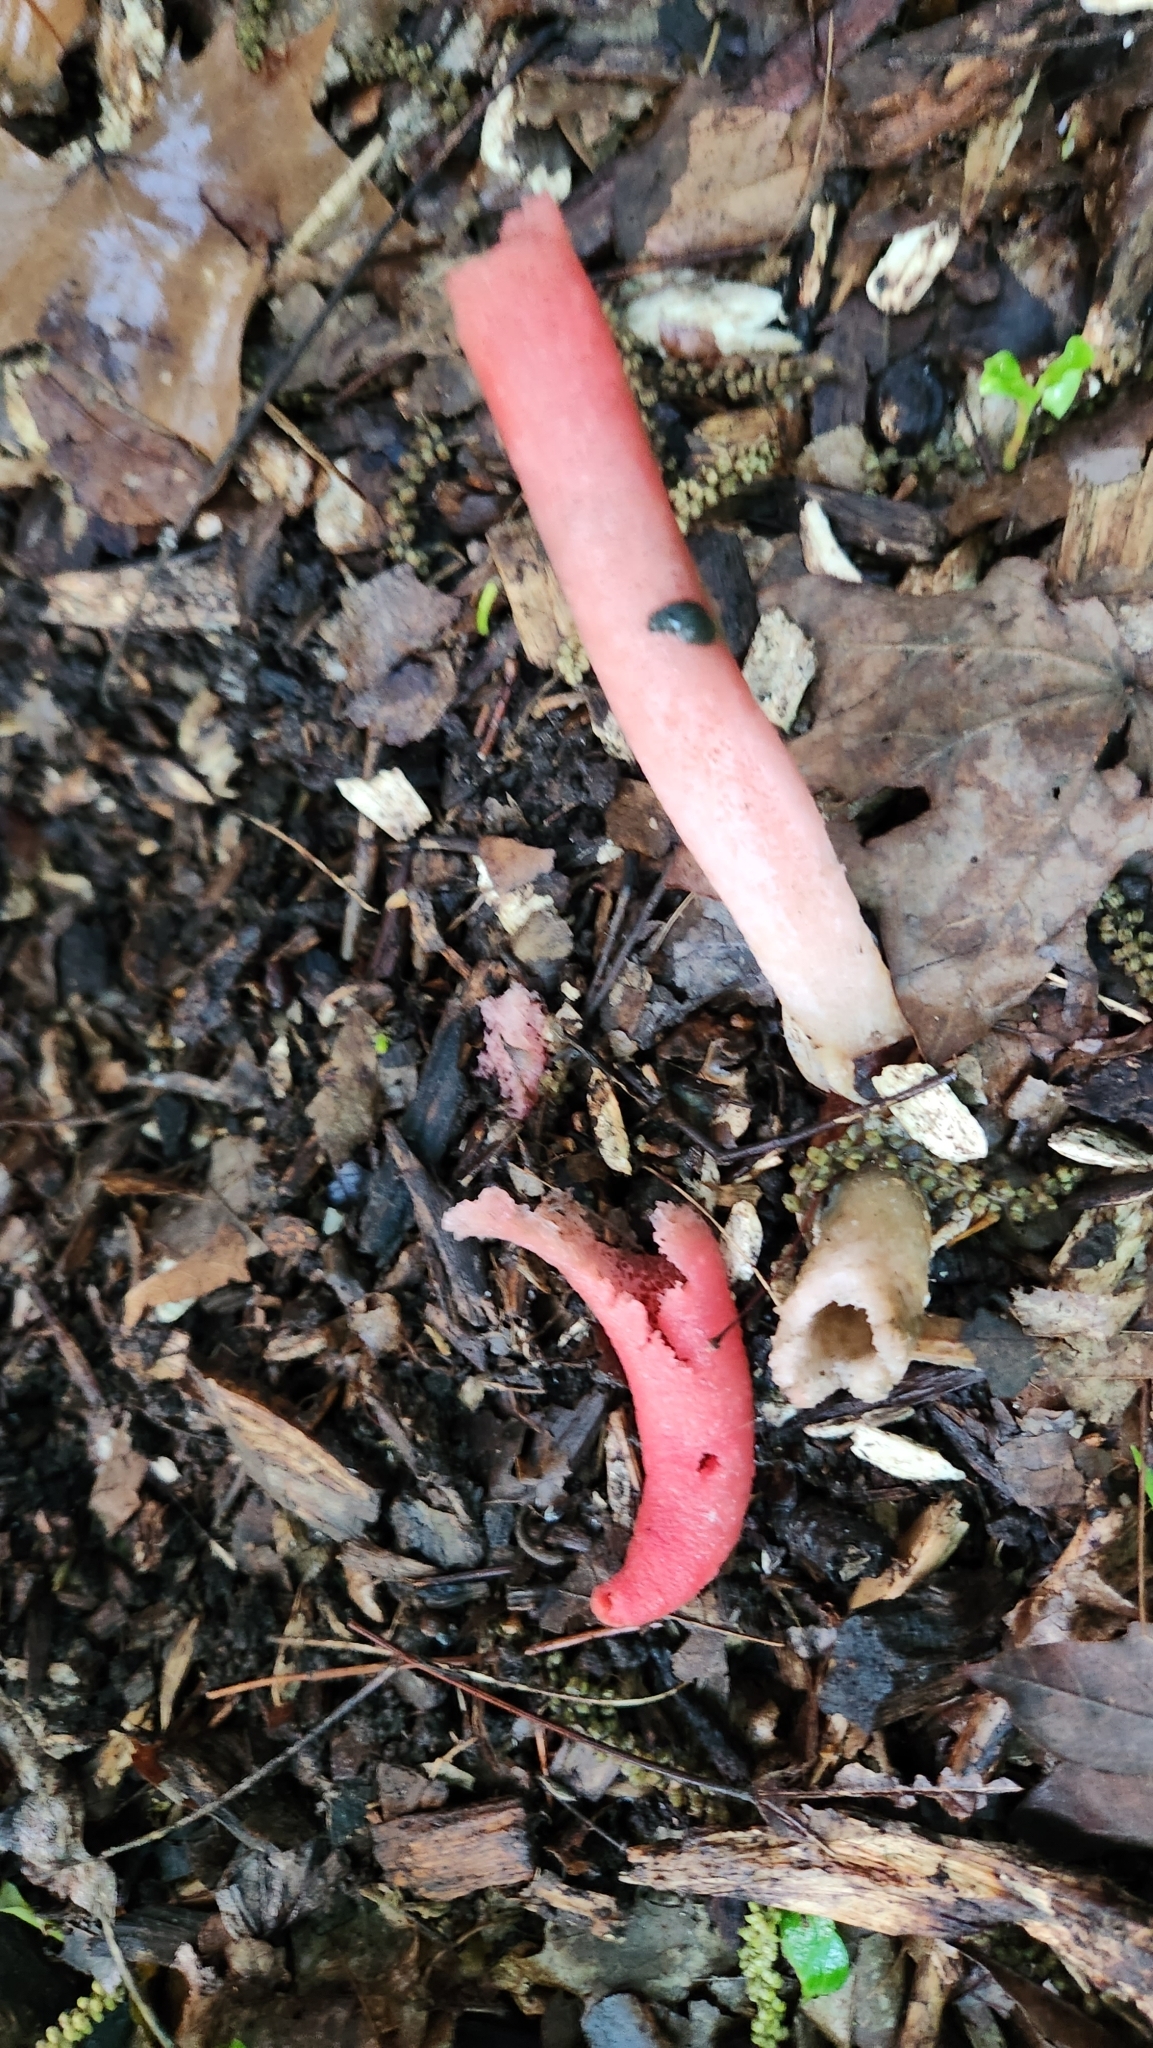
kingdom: Fungi
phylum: Basidiomycota
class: Agaricomycetes
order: Phallales
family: Phallaceae
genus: Mutinus
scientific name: Mutinus elegans
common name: Devil's dipstick
